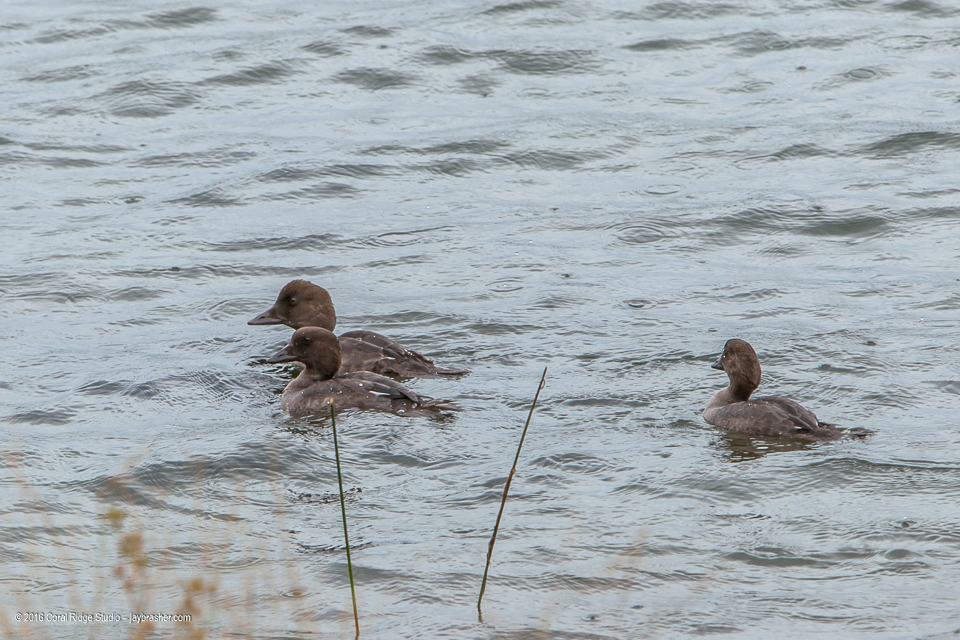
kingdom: Animalia
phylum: Chordata
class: Aves
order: Anseriformes
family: Anatidae
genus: Bucephala
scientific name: Bucephala clangula
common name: Common goldeneye
